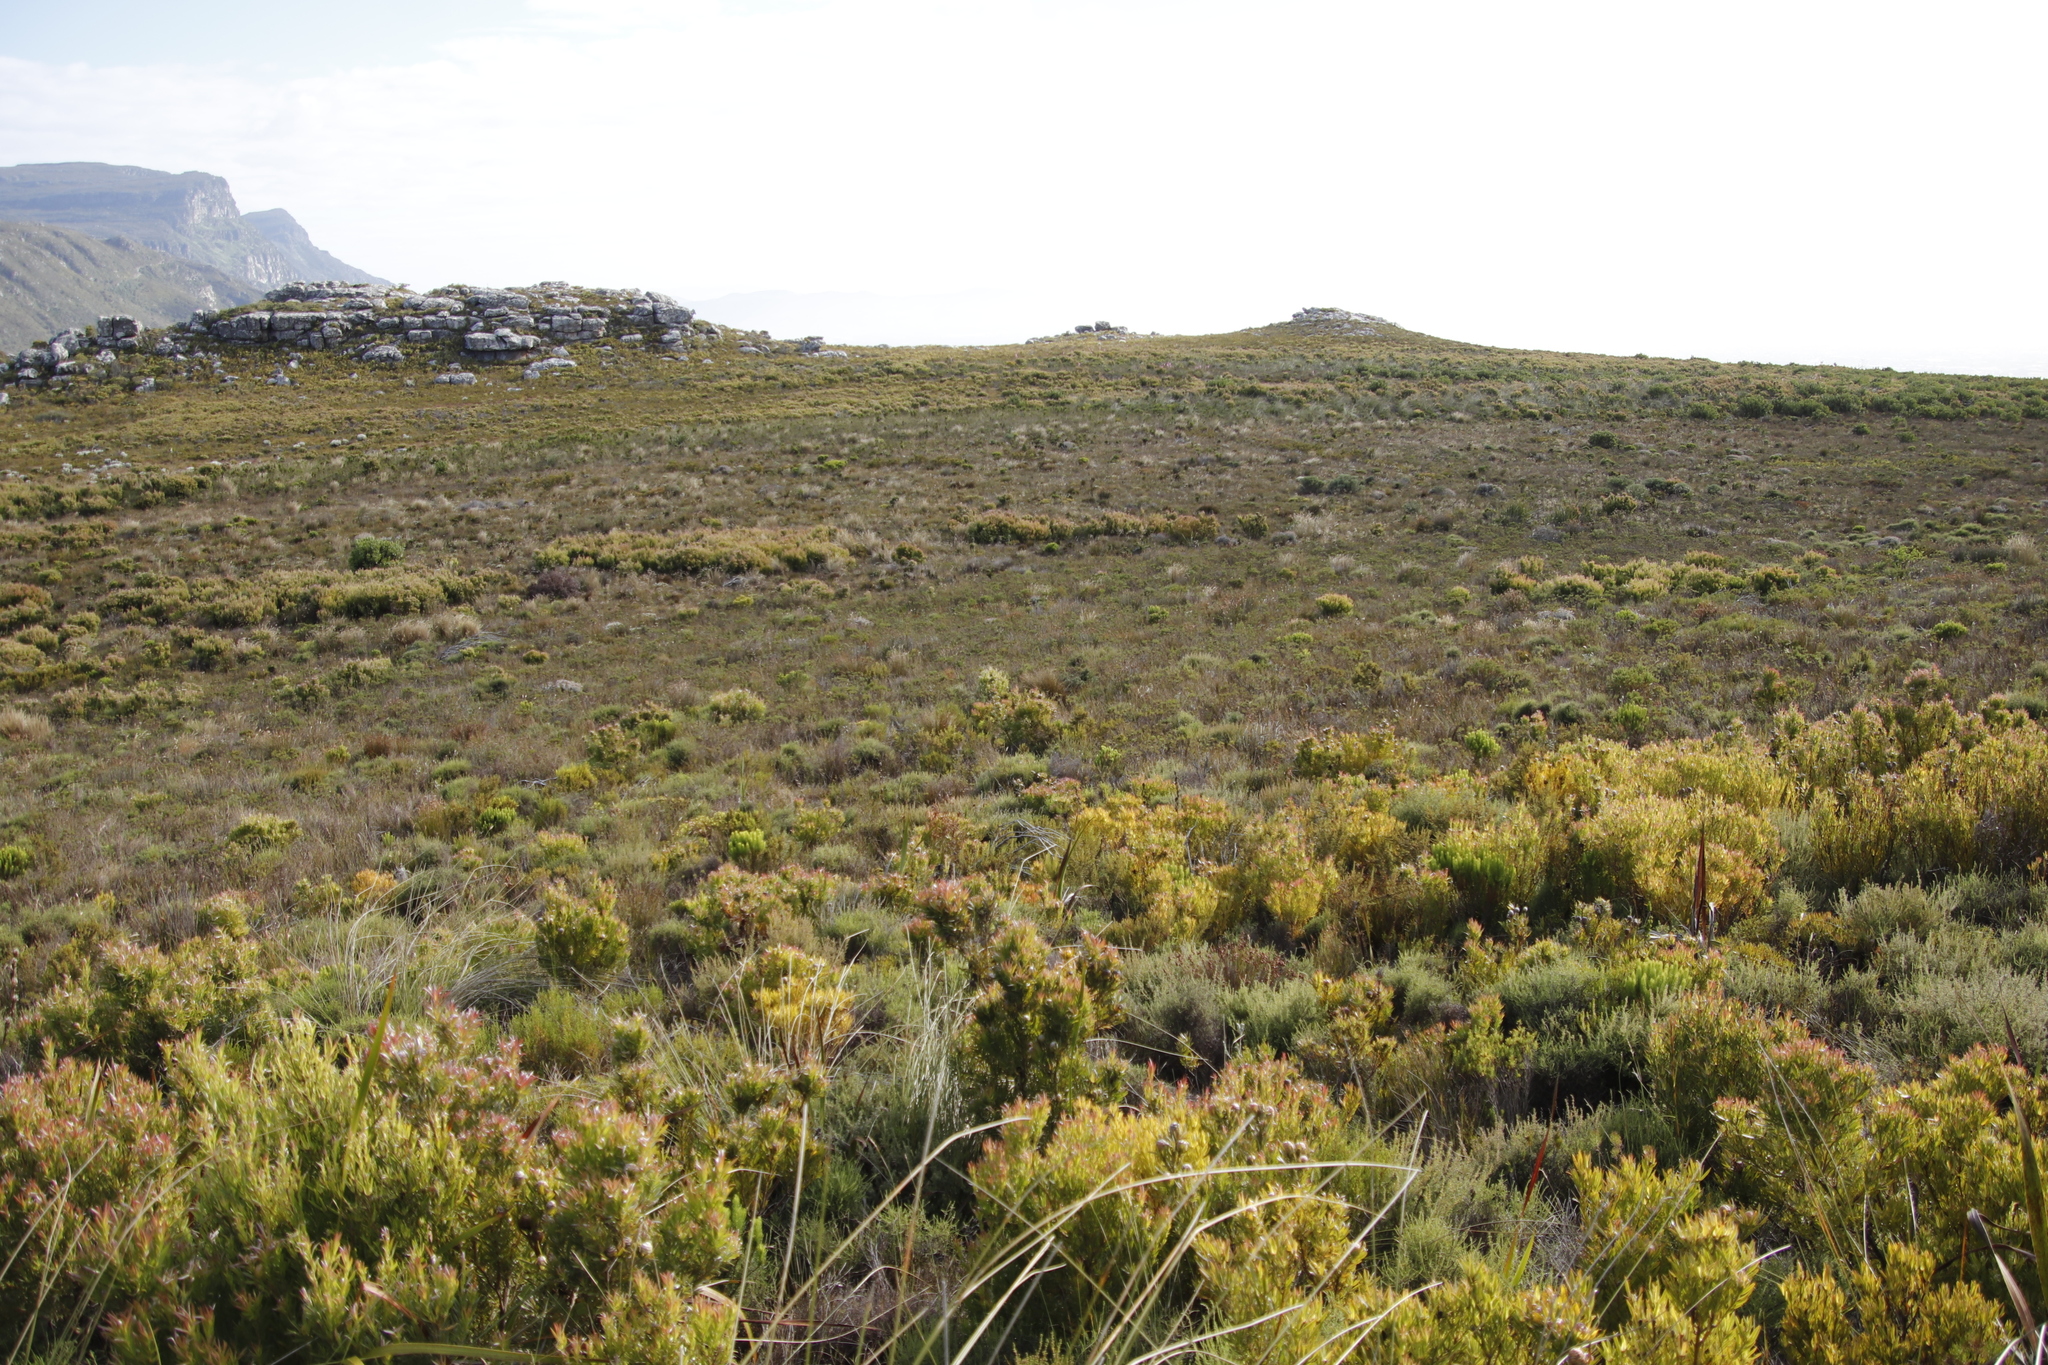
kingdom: Plantae
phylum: Tracheophyta
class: Magnoliopsida
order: Proteales
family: Proteaceae
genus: Leucadendron
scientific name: Leucadendron xanthoconus
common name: Sickle-leaf conebush
